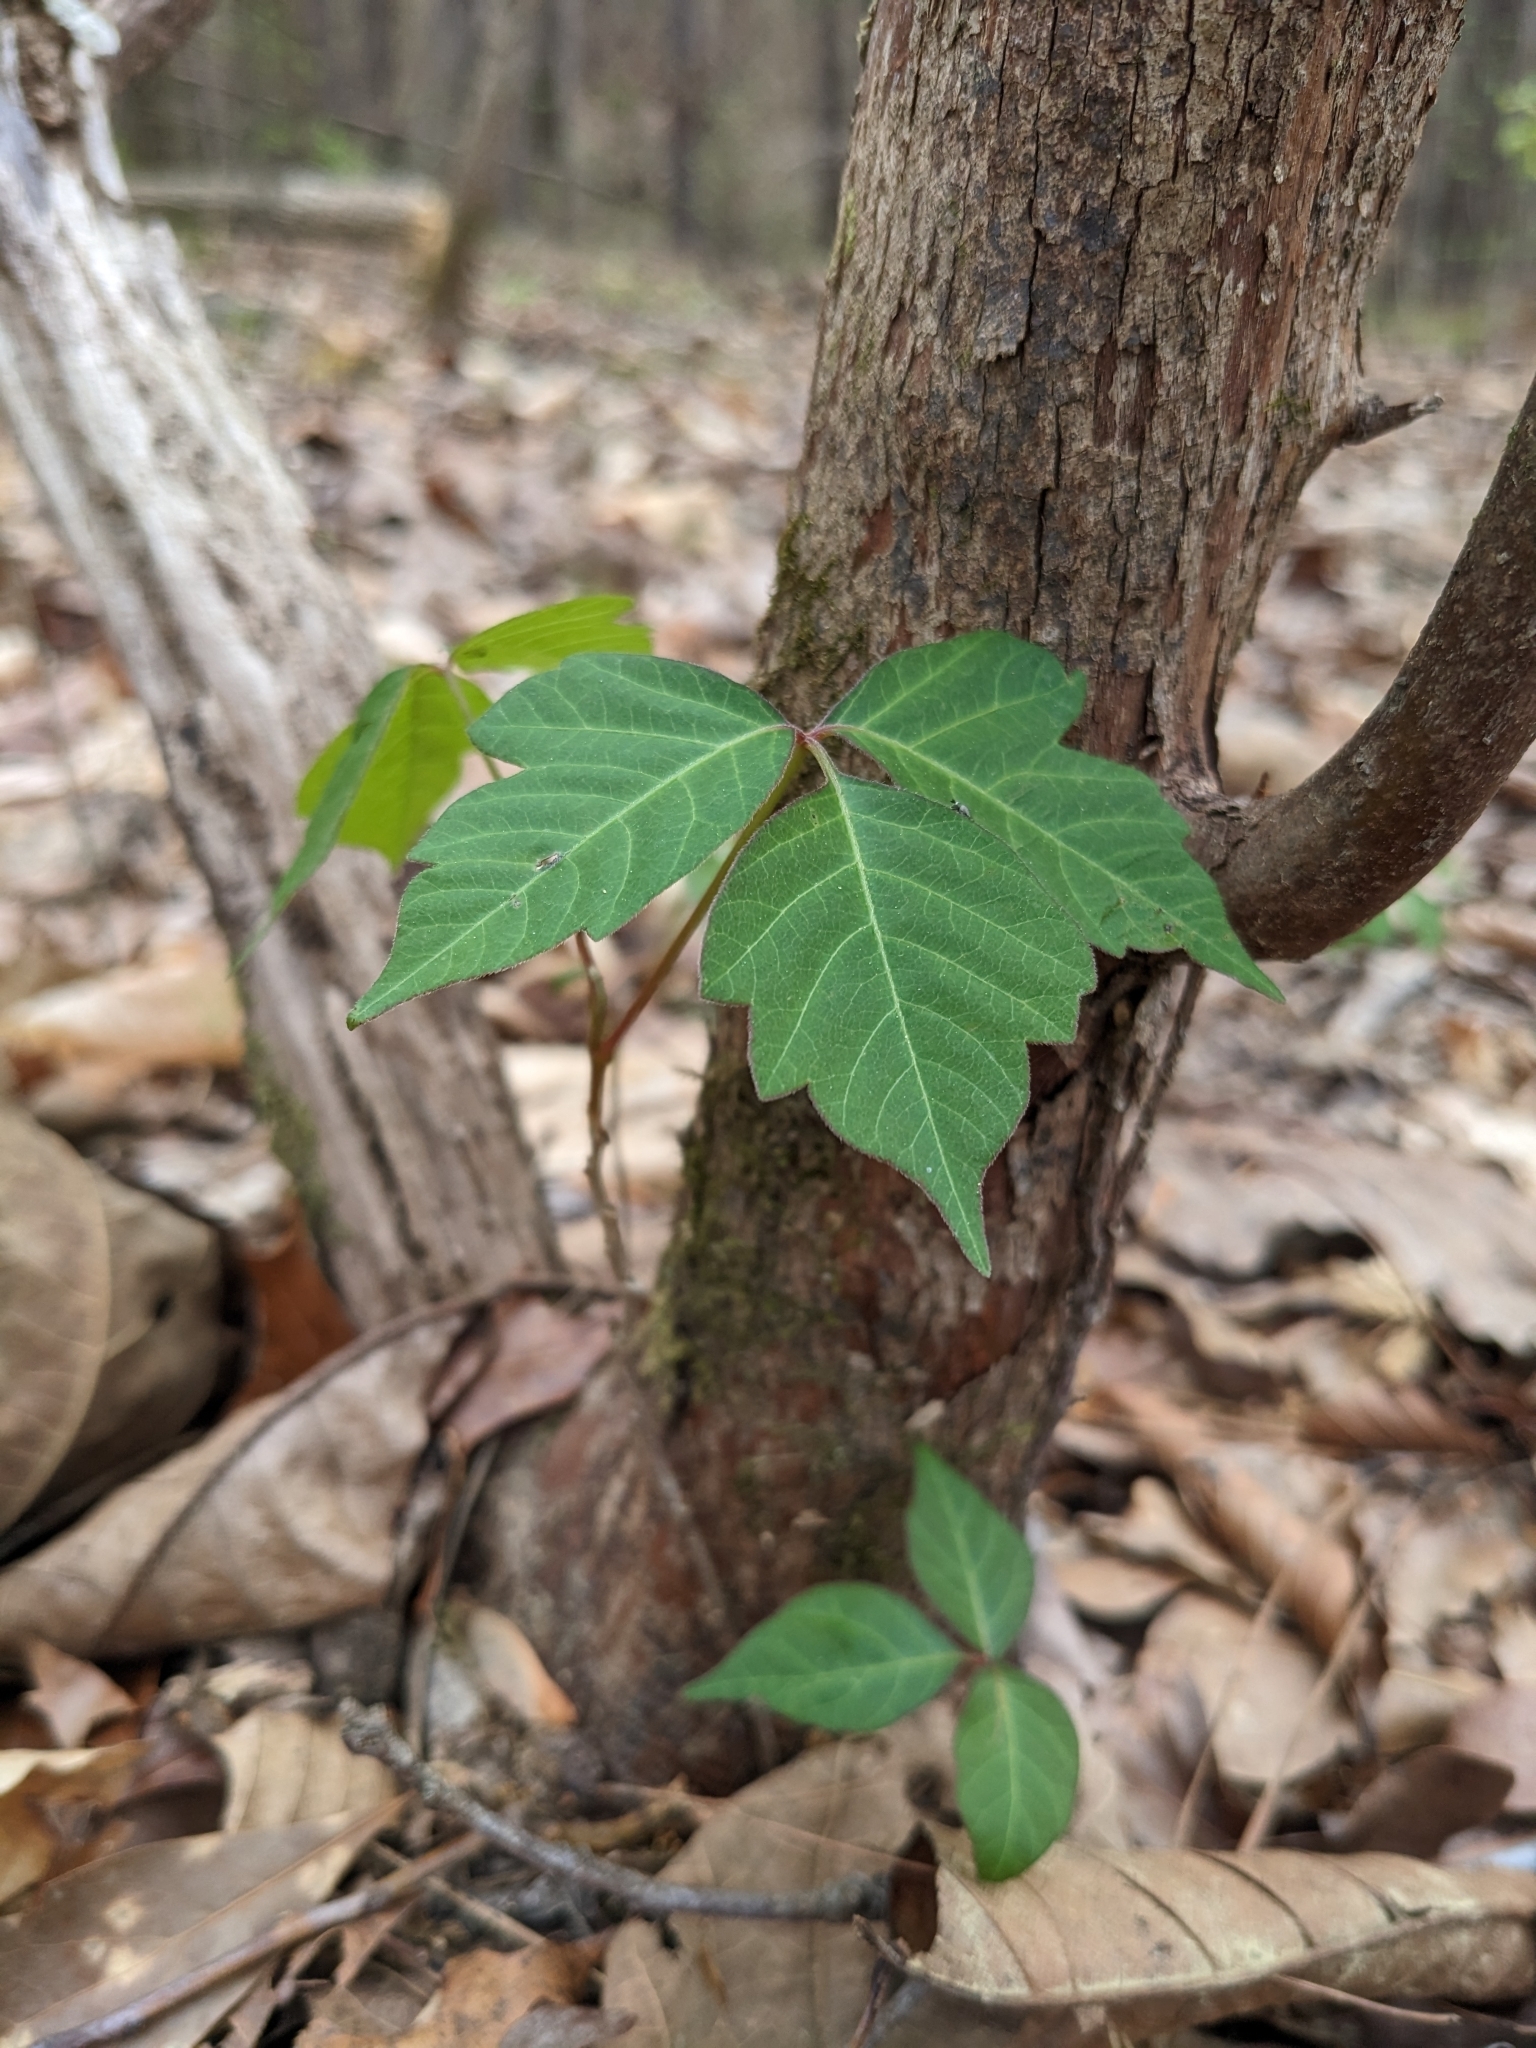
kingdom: Plantae
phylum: Tracheophyta
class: Magnoliopsida
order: Sapindales
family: Anacardiaceae
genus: Toxicodendron
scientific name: Toxicodendron radicans
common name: Poison ivy
